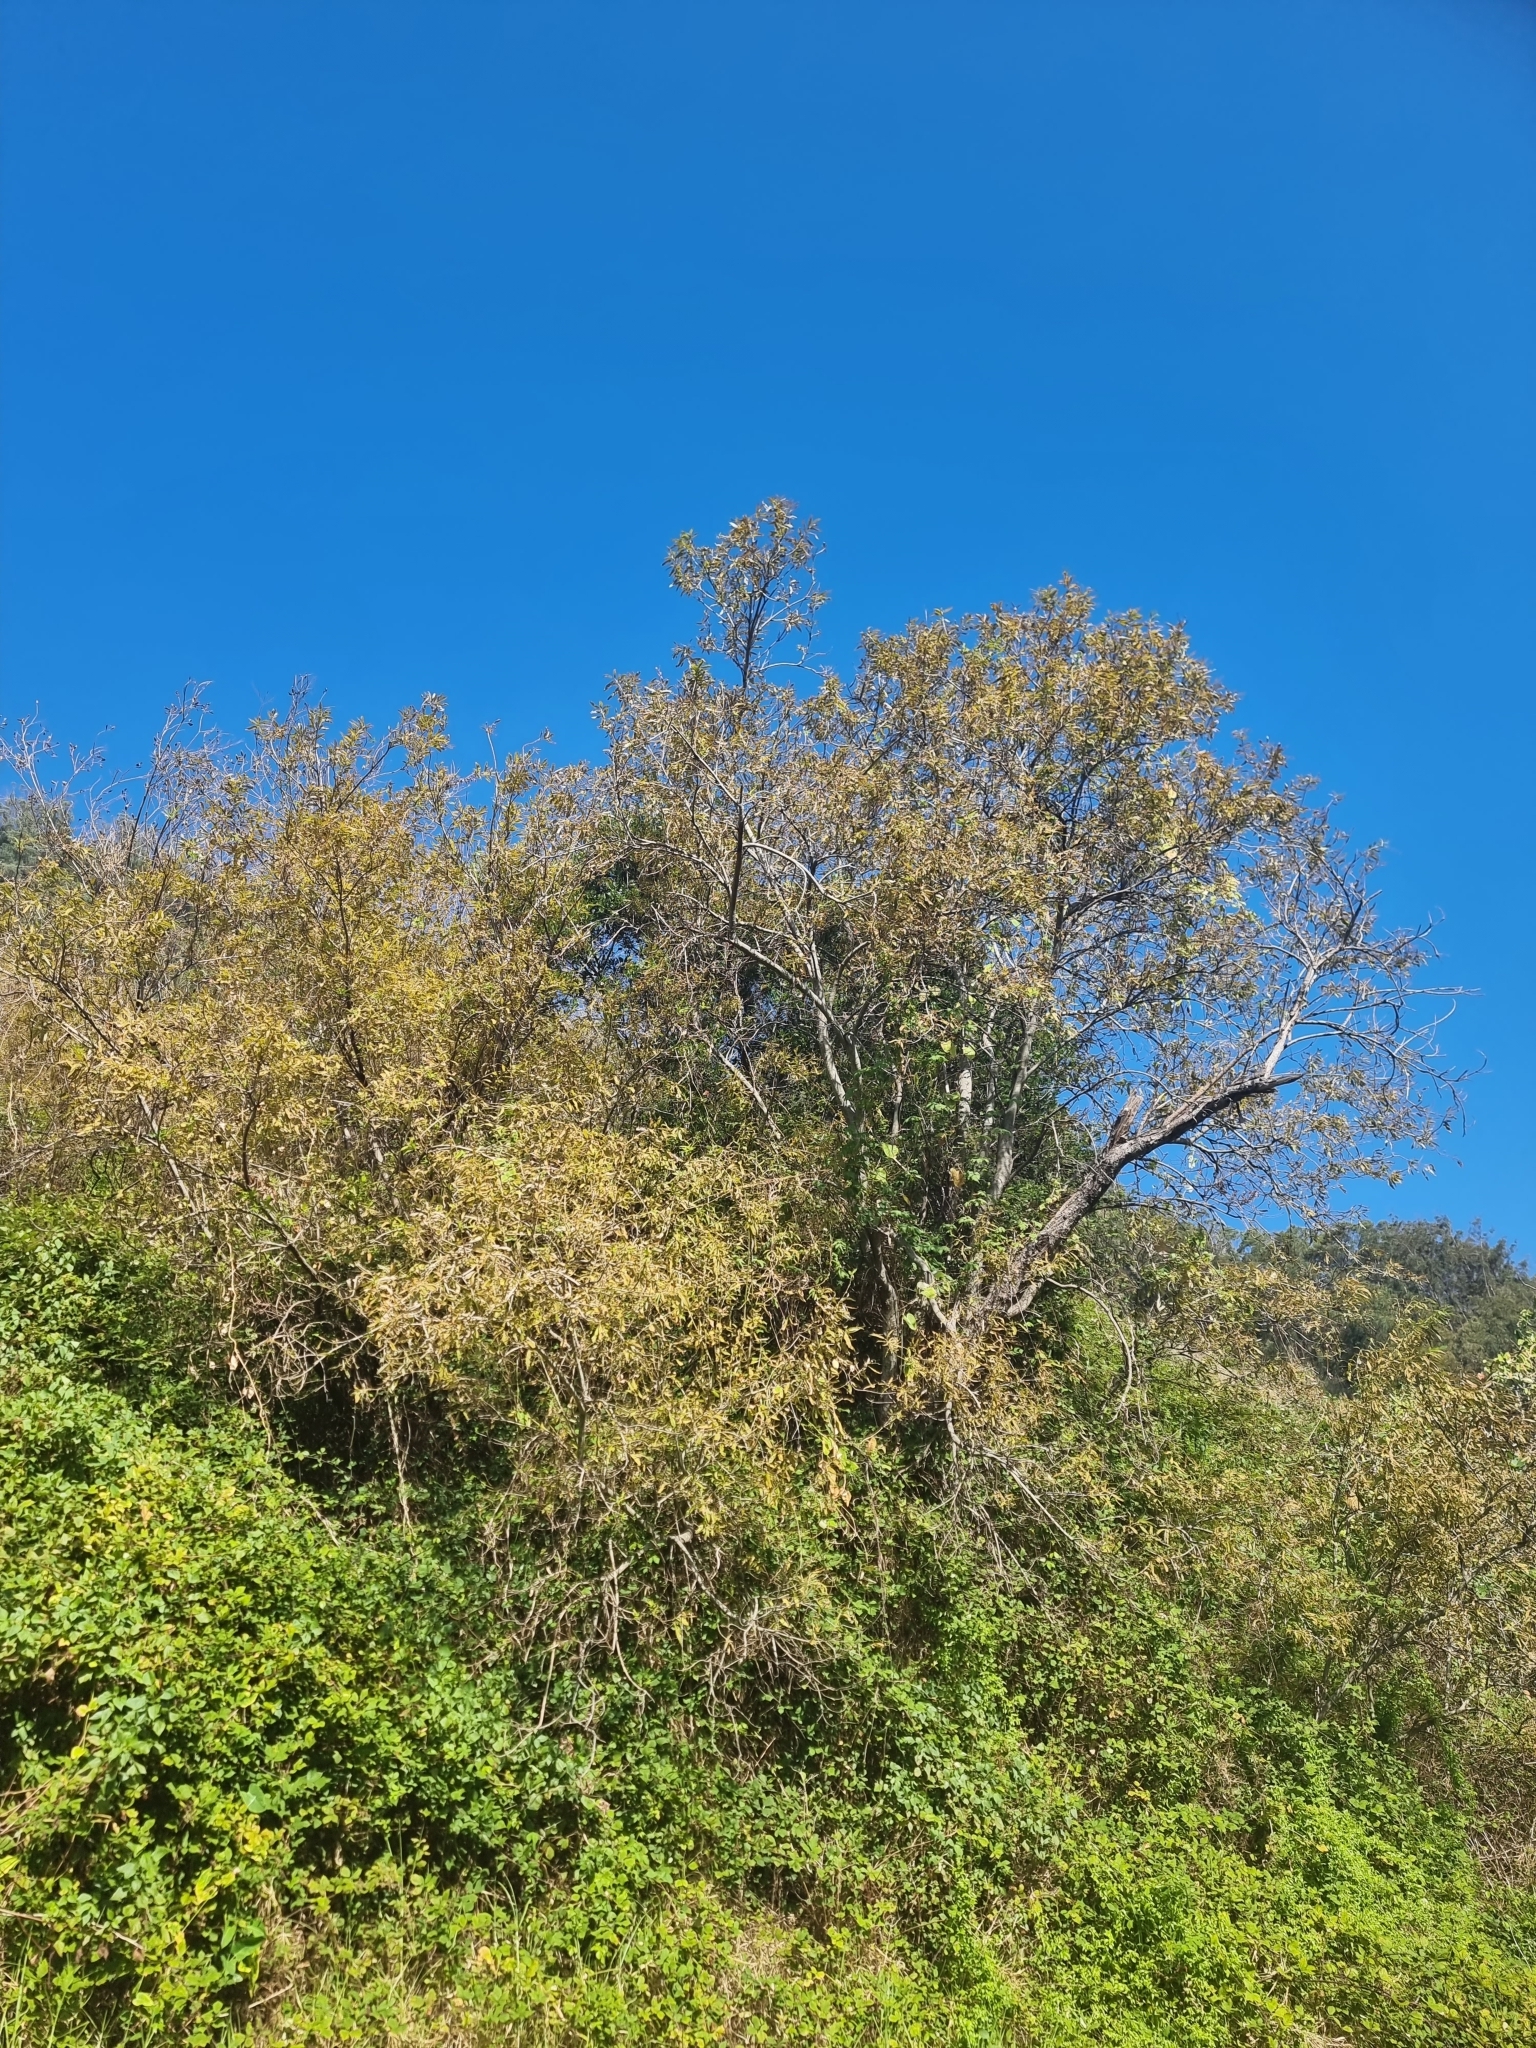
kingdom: Plantae
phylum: Tracheophyta
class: Magnoliopsida
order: Malpighiales
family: Salicaceae
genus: Salix
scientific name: Salix canariensis
